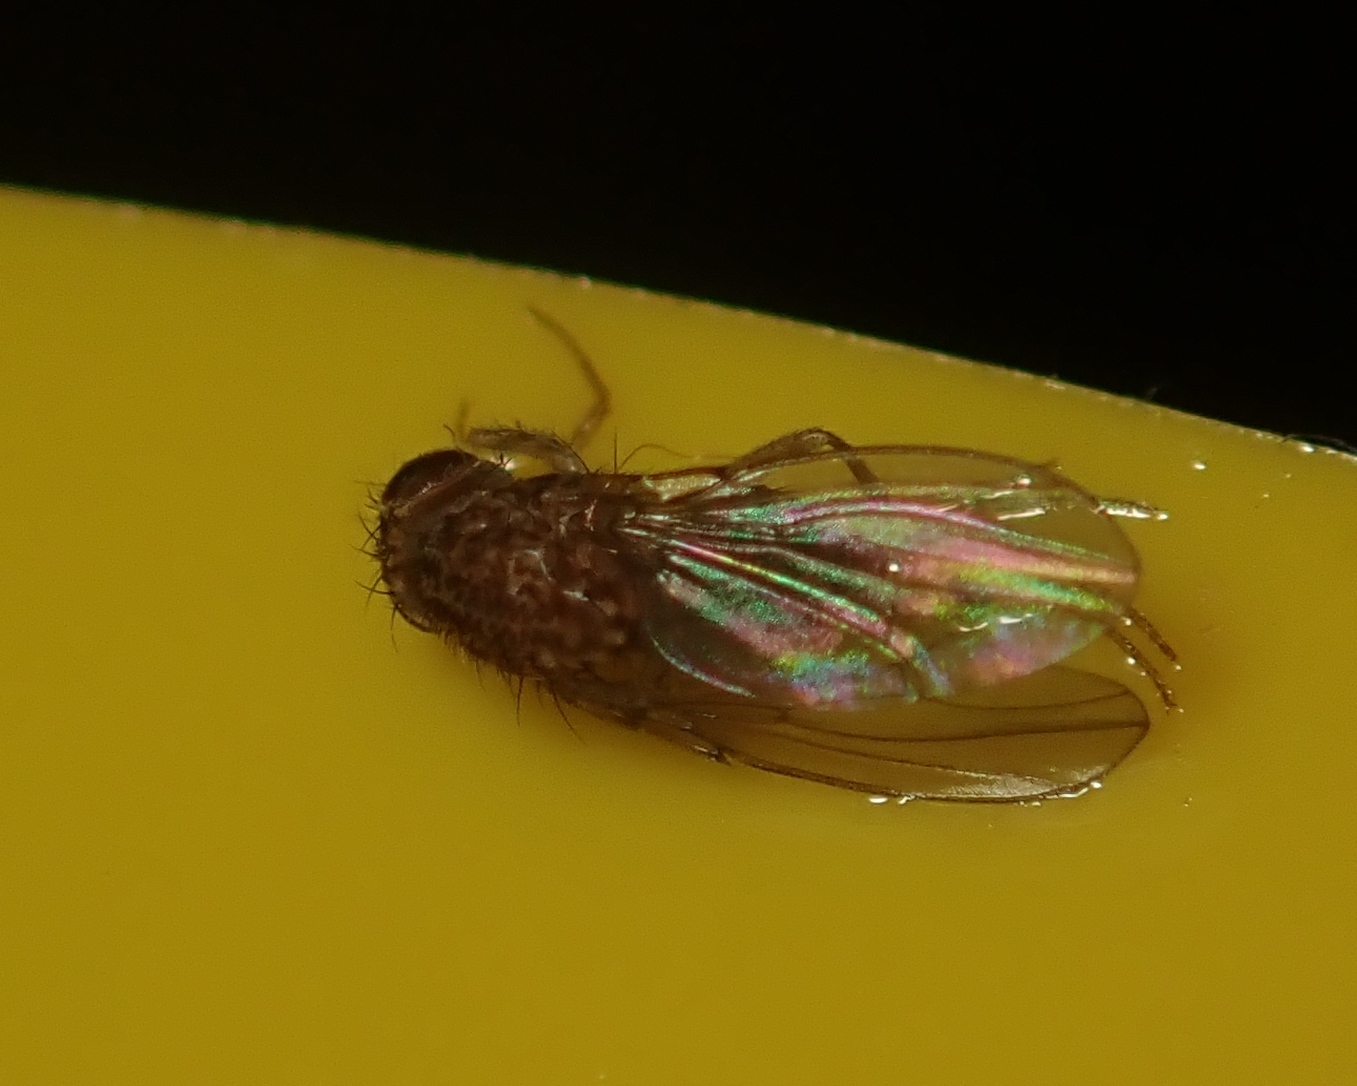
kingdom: Animalia
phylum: Arthropoda
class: Insecta
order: Diptera
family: Drosophilidae
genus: Drosophila
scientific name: Drosophila repleta
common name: Pomace fly
